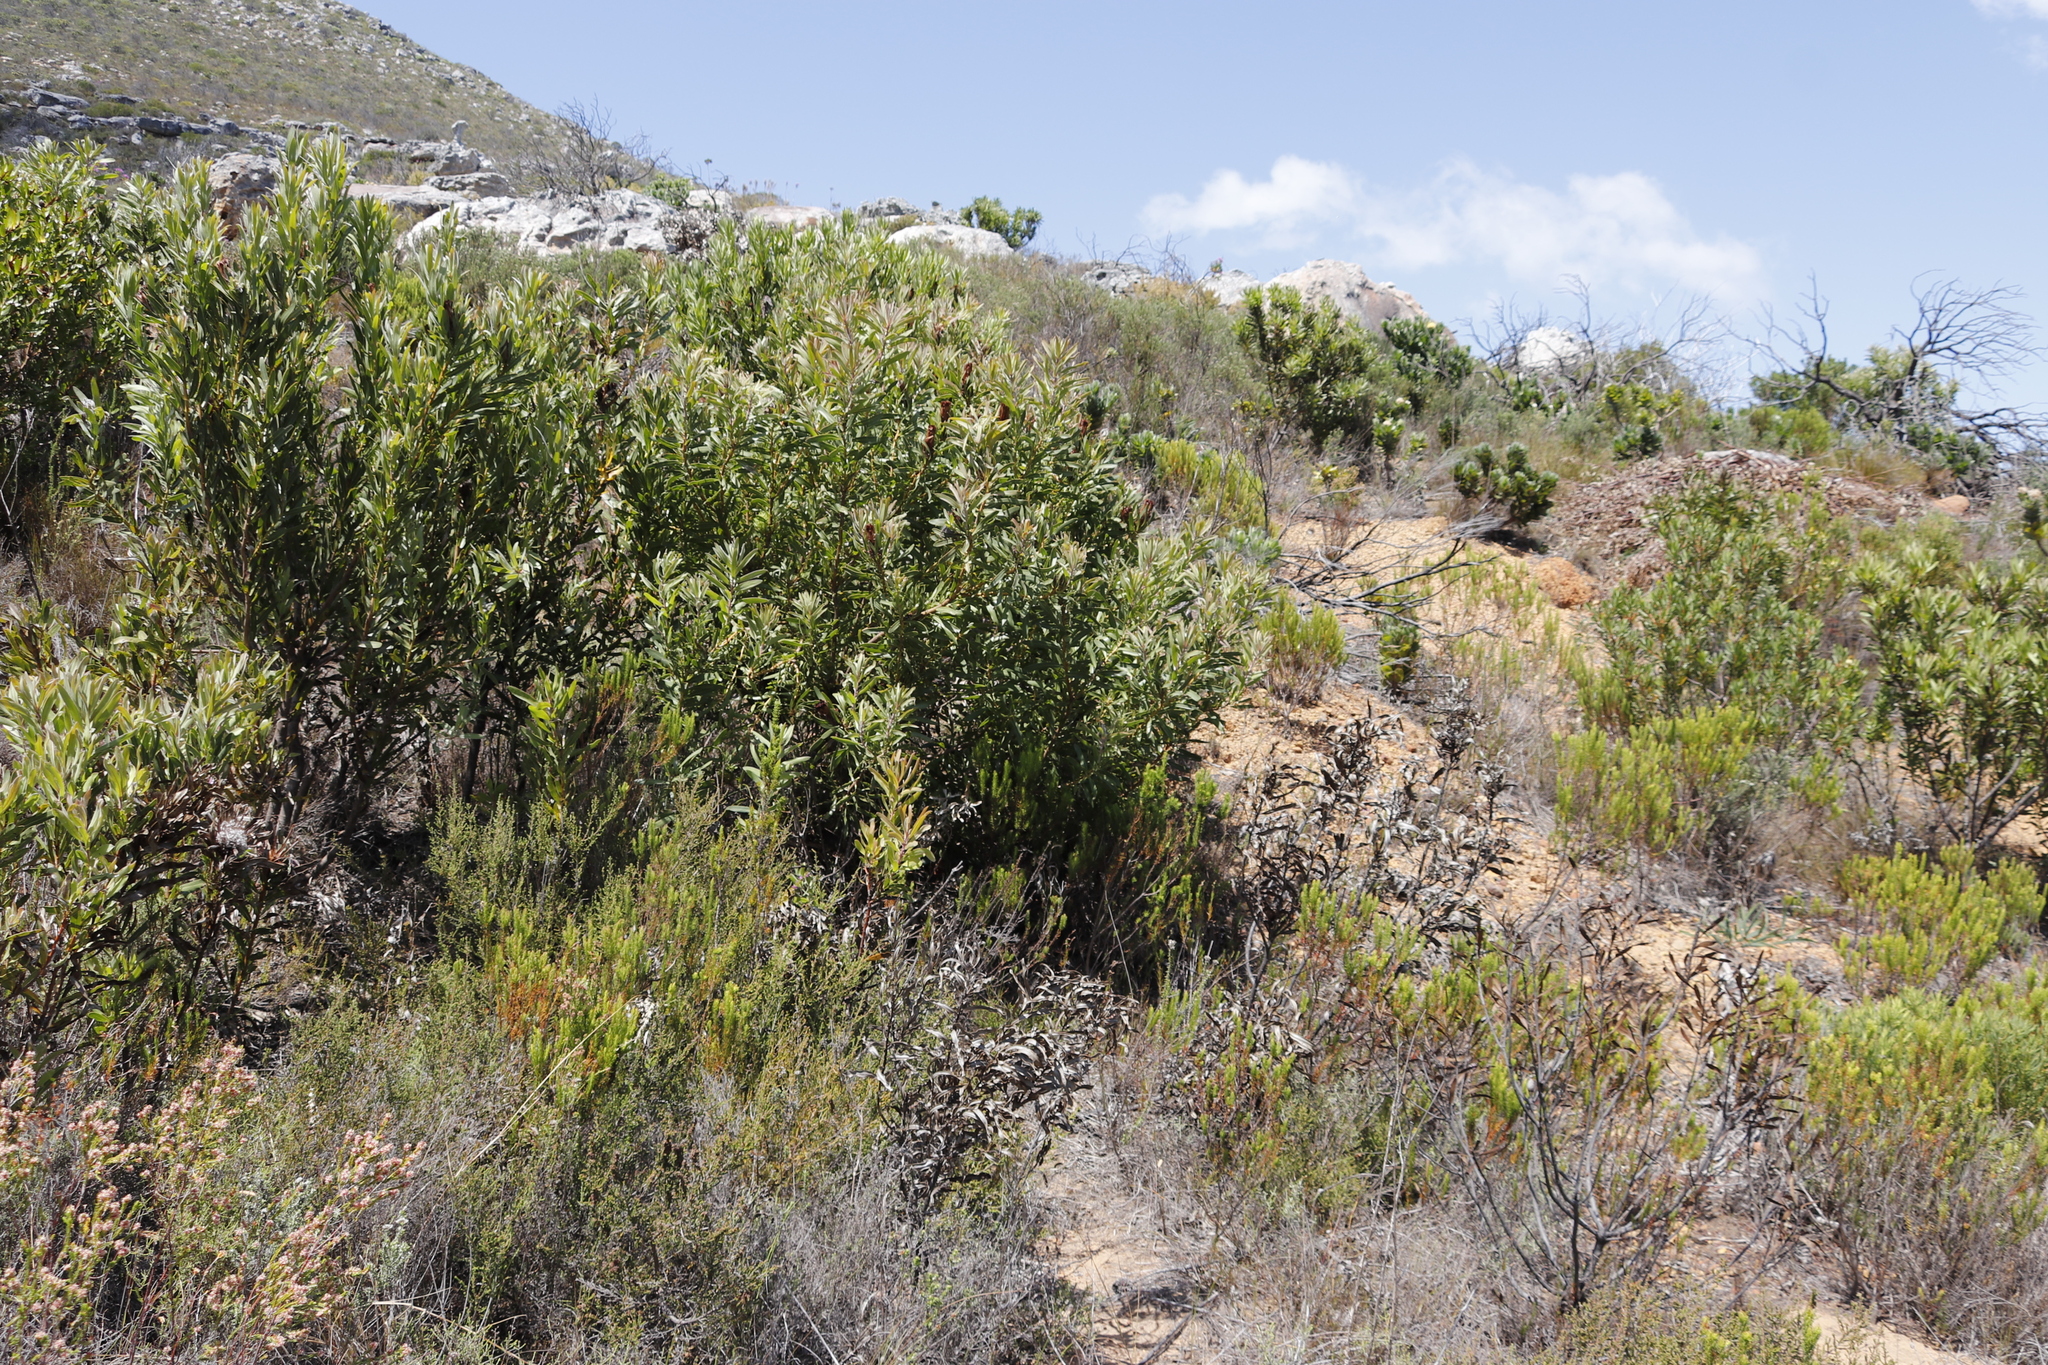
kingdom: Plantae
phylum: Tracheophyta
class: Magnoliopsida
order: Proteales
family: Proteaceae
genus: Protea
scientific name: Protea lepidocarpodendron
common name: Black-bearded protea
